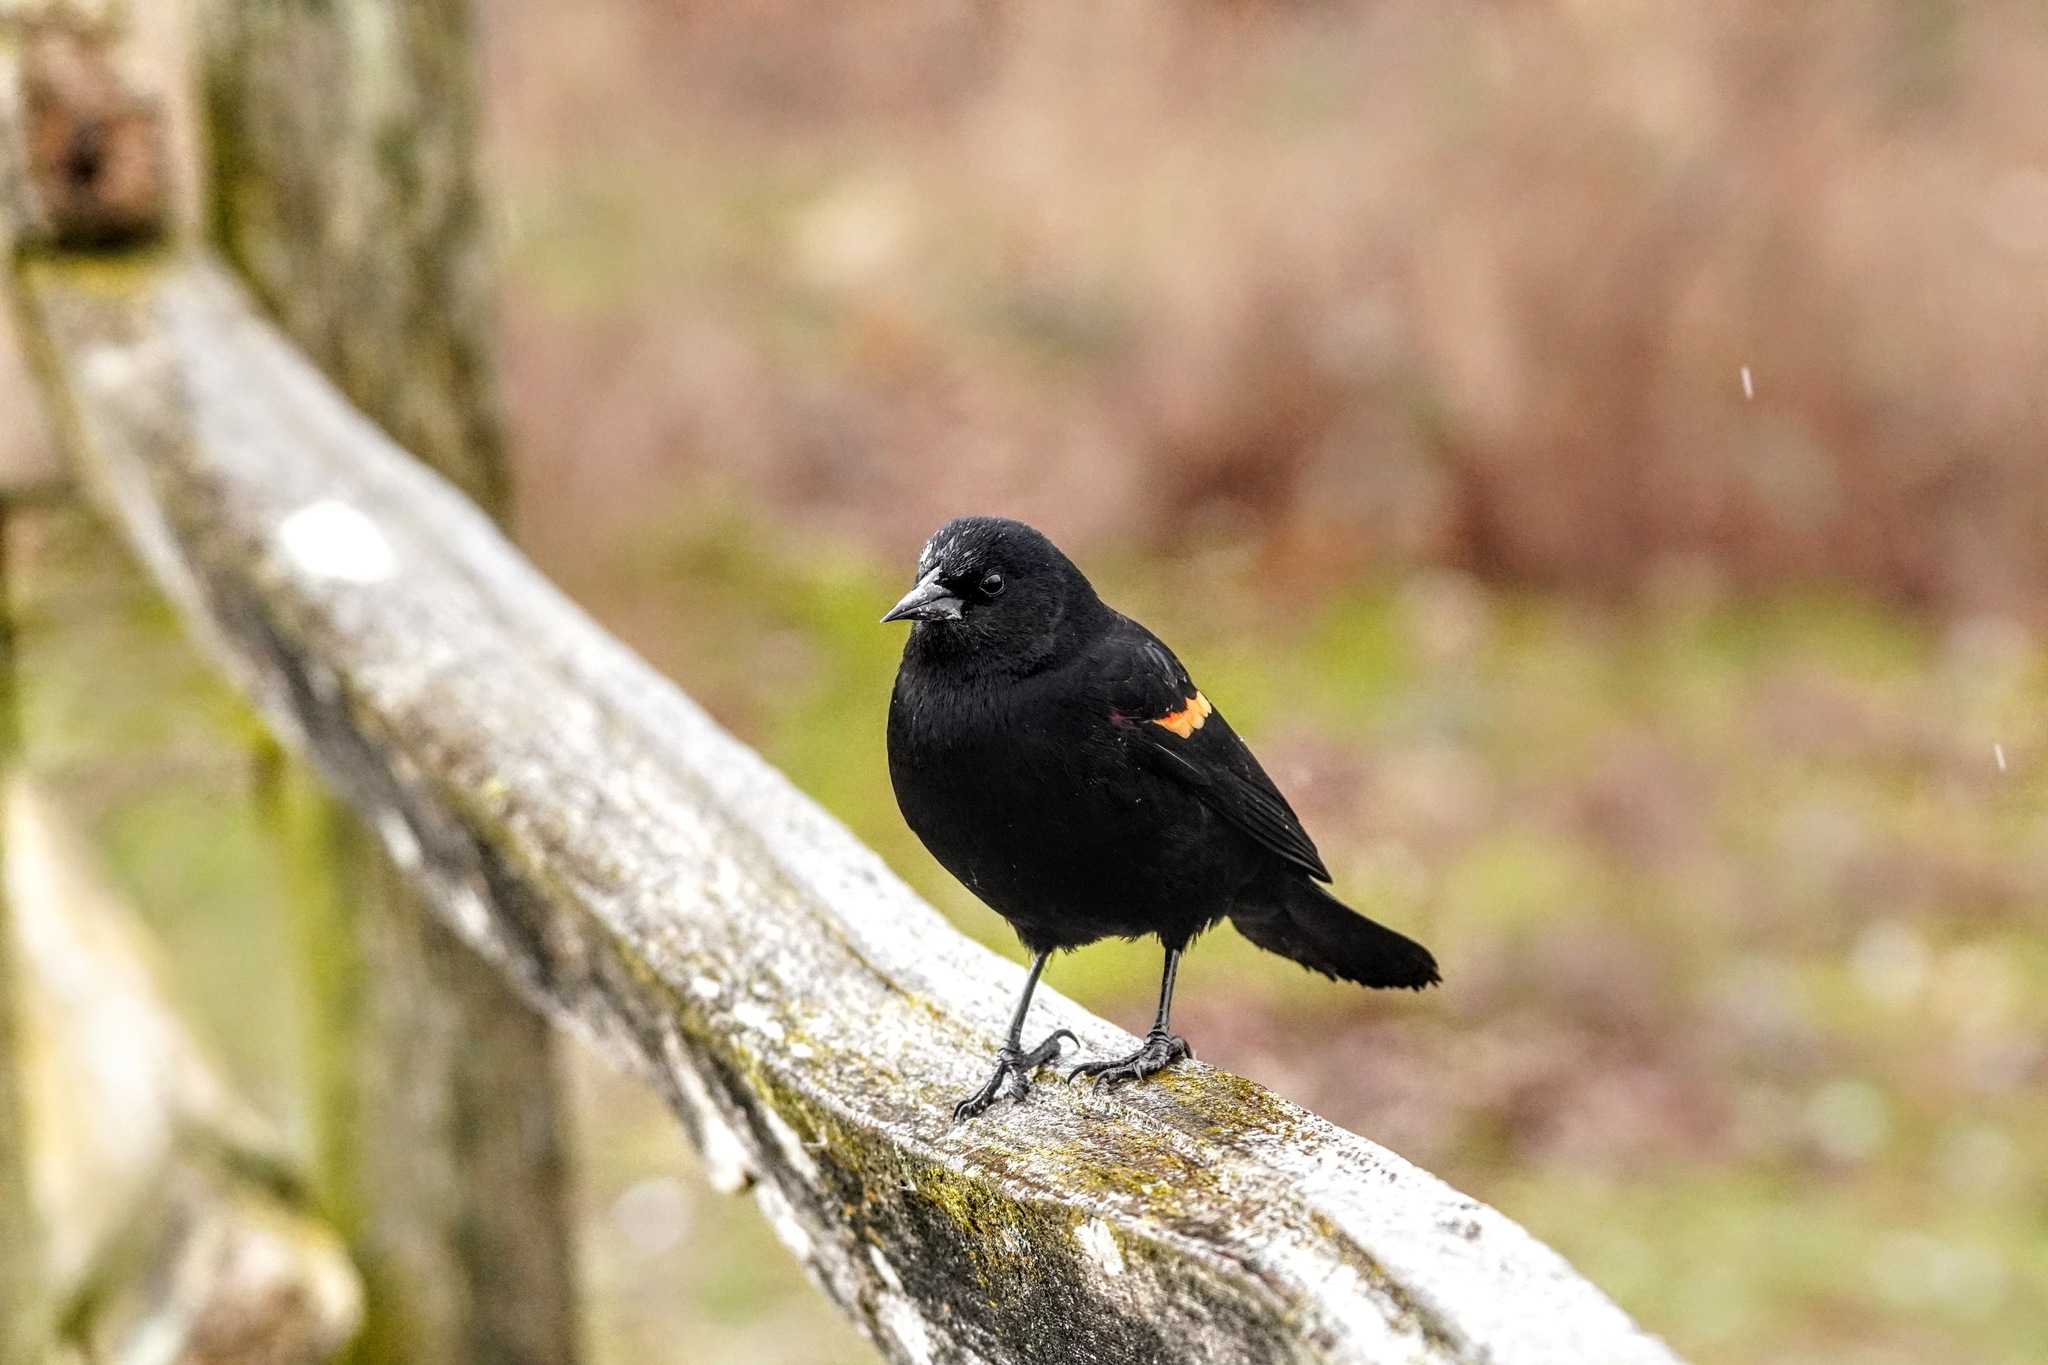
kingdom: Animalia
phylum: Chordata
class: Aves
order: Passeriformes
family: Icteridae
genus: Agelaius
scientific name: Agelaius phoeniceus
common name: Red-winged blackbird
